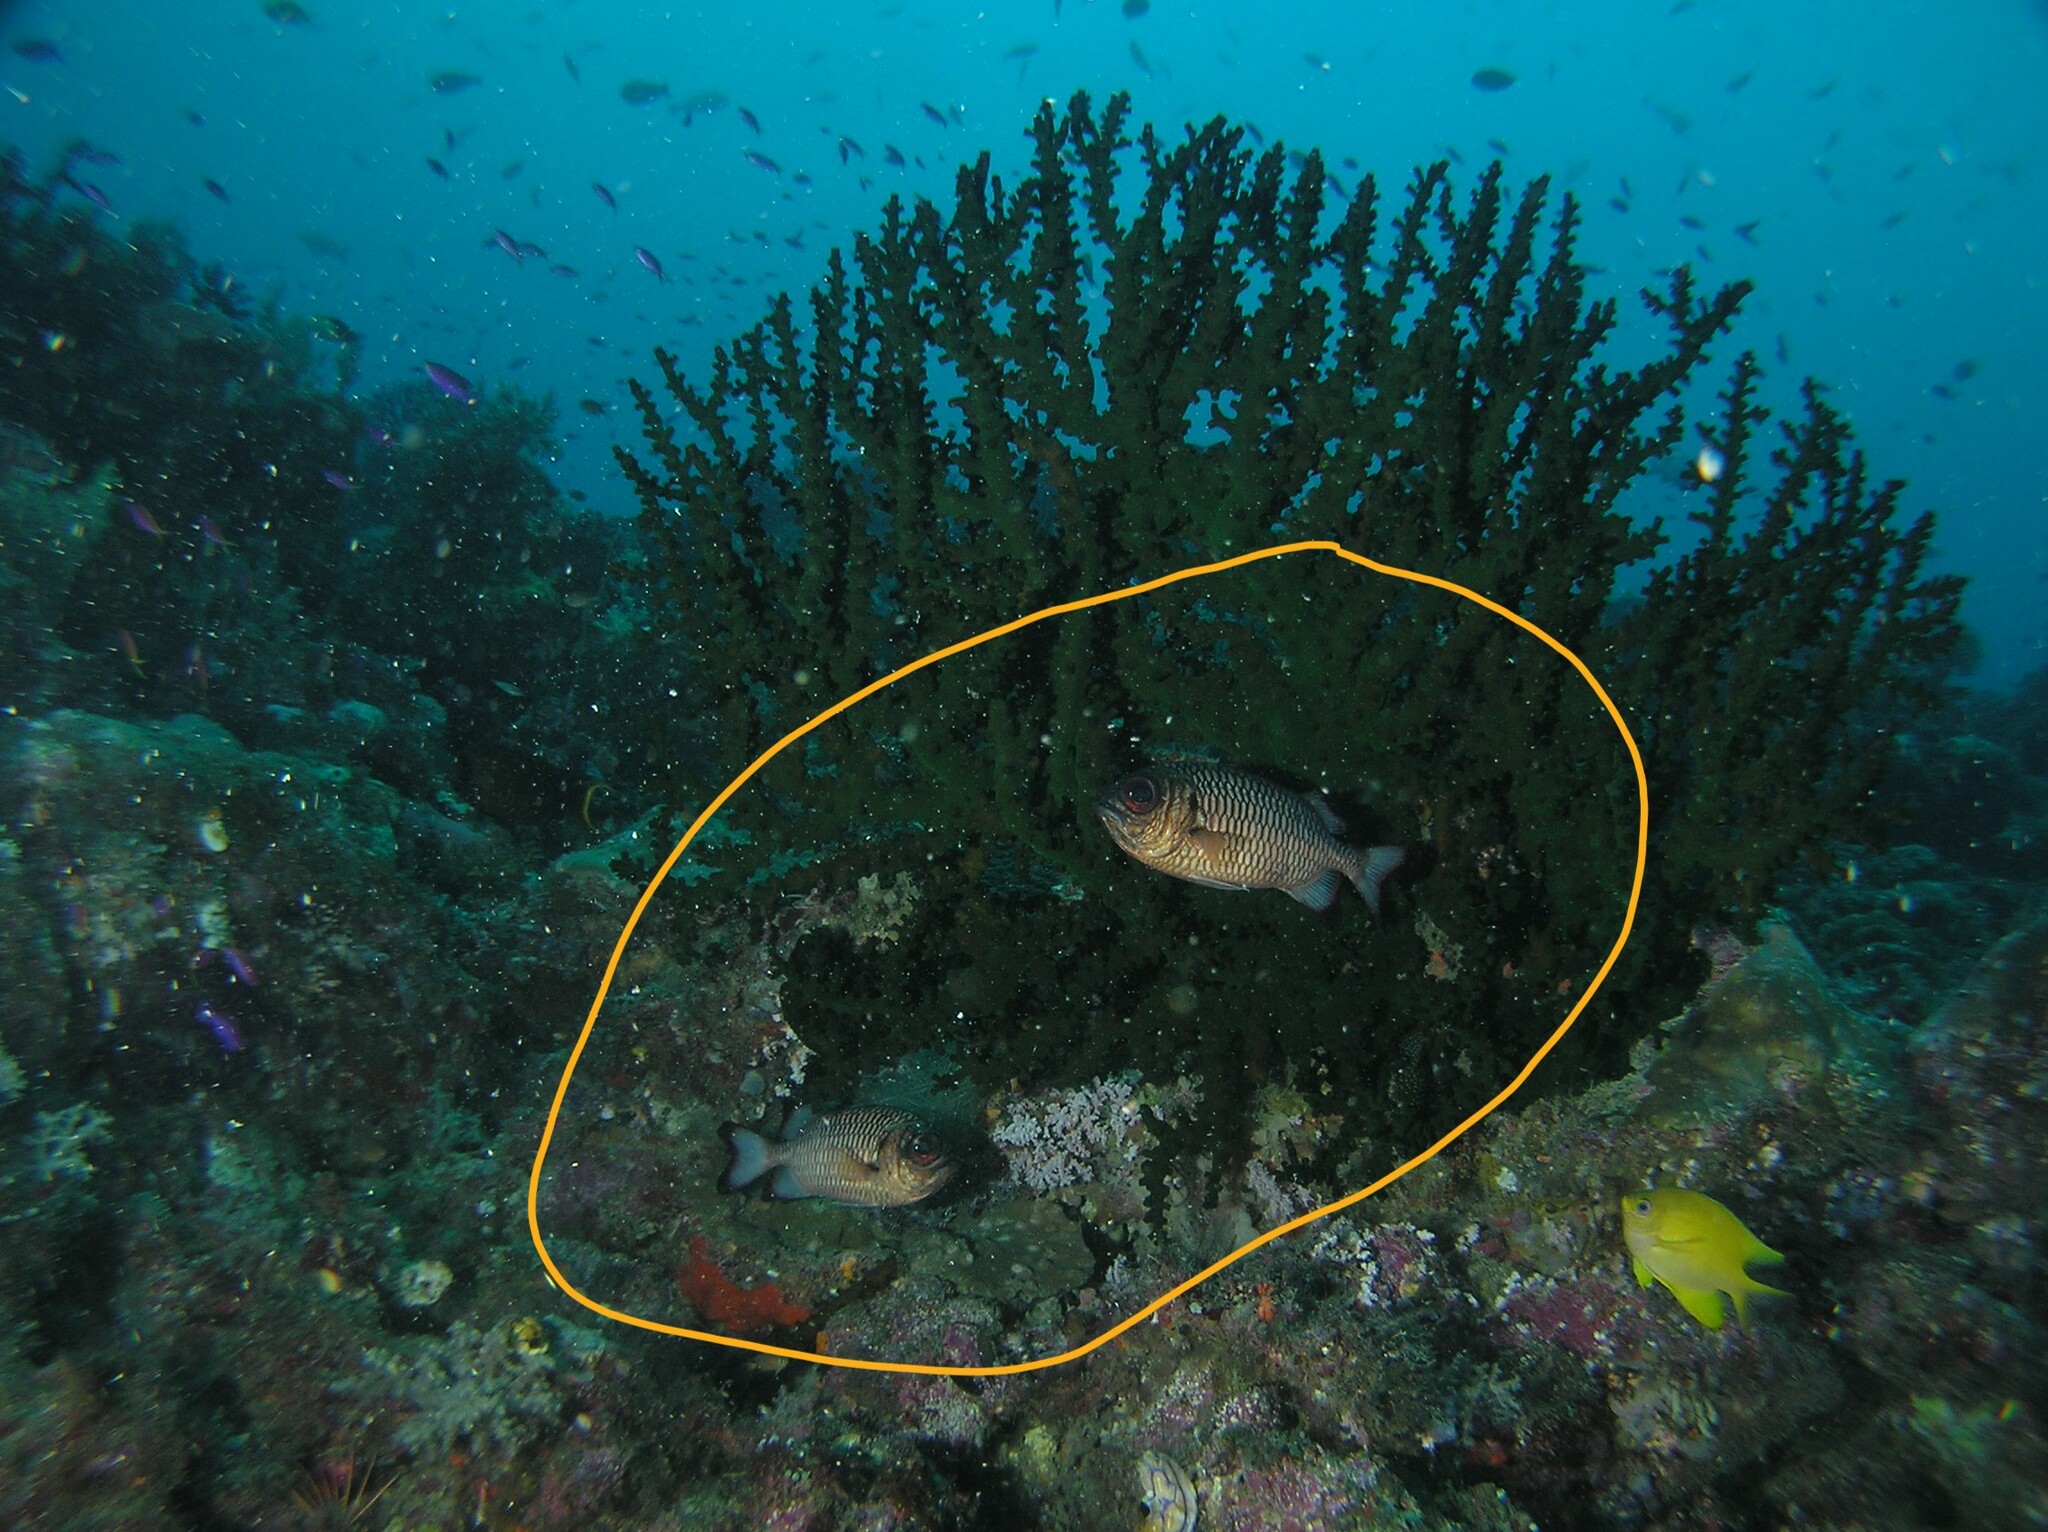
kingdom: Animalia
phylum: Chordata
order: Beryciformes
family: Holocentridae
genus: Myripristis
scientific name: Myripristis adusta
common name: Blackfin soldierfish
